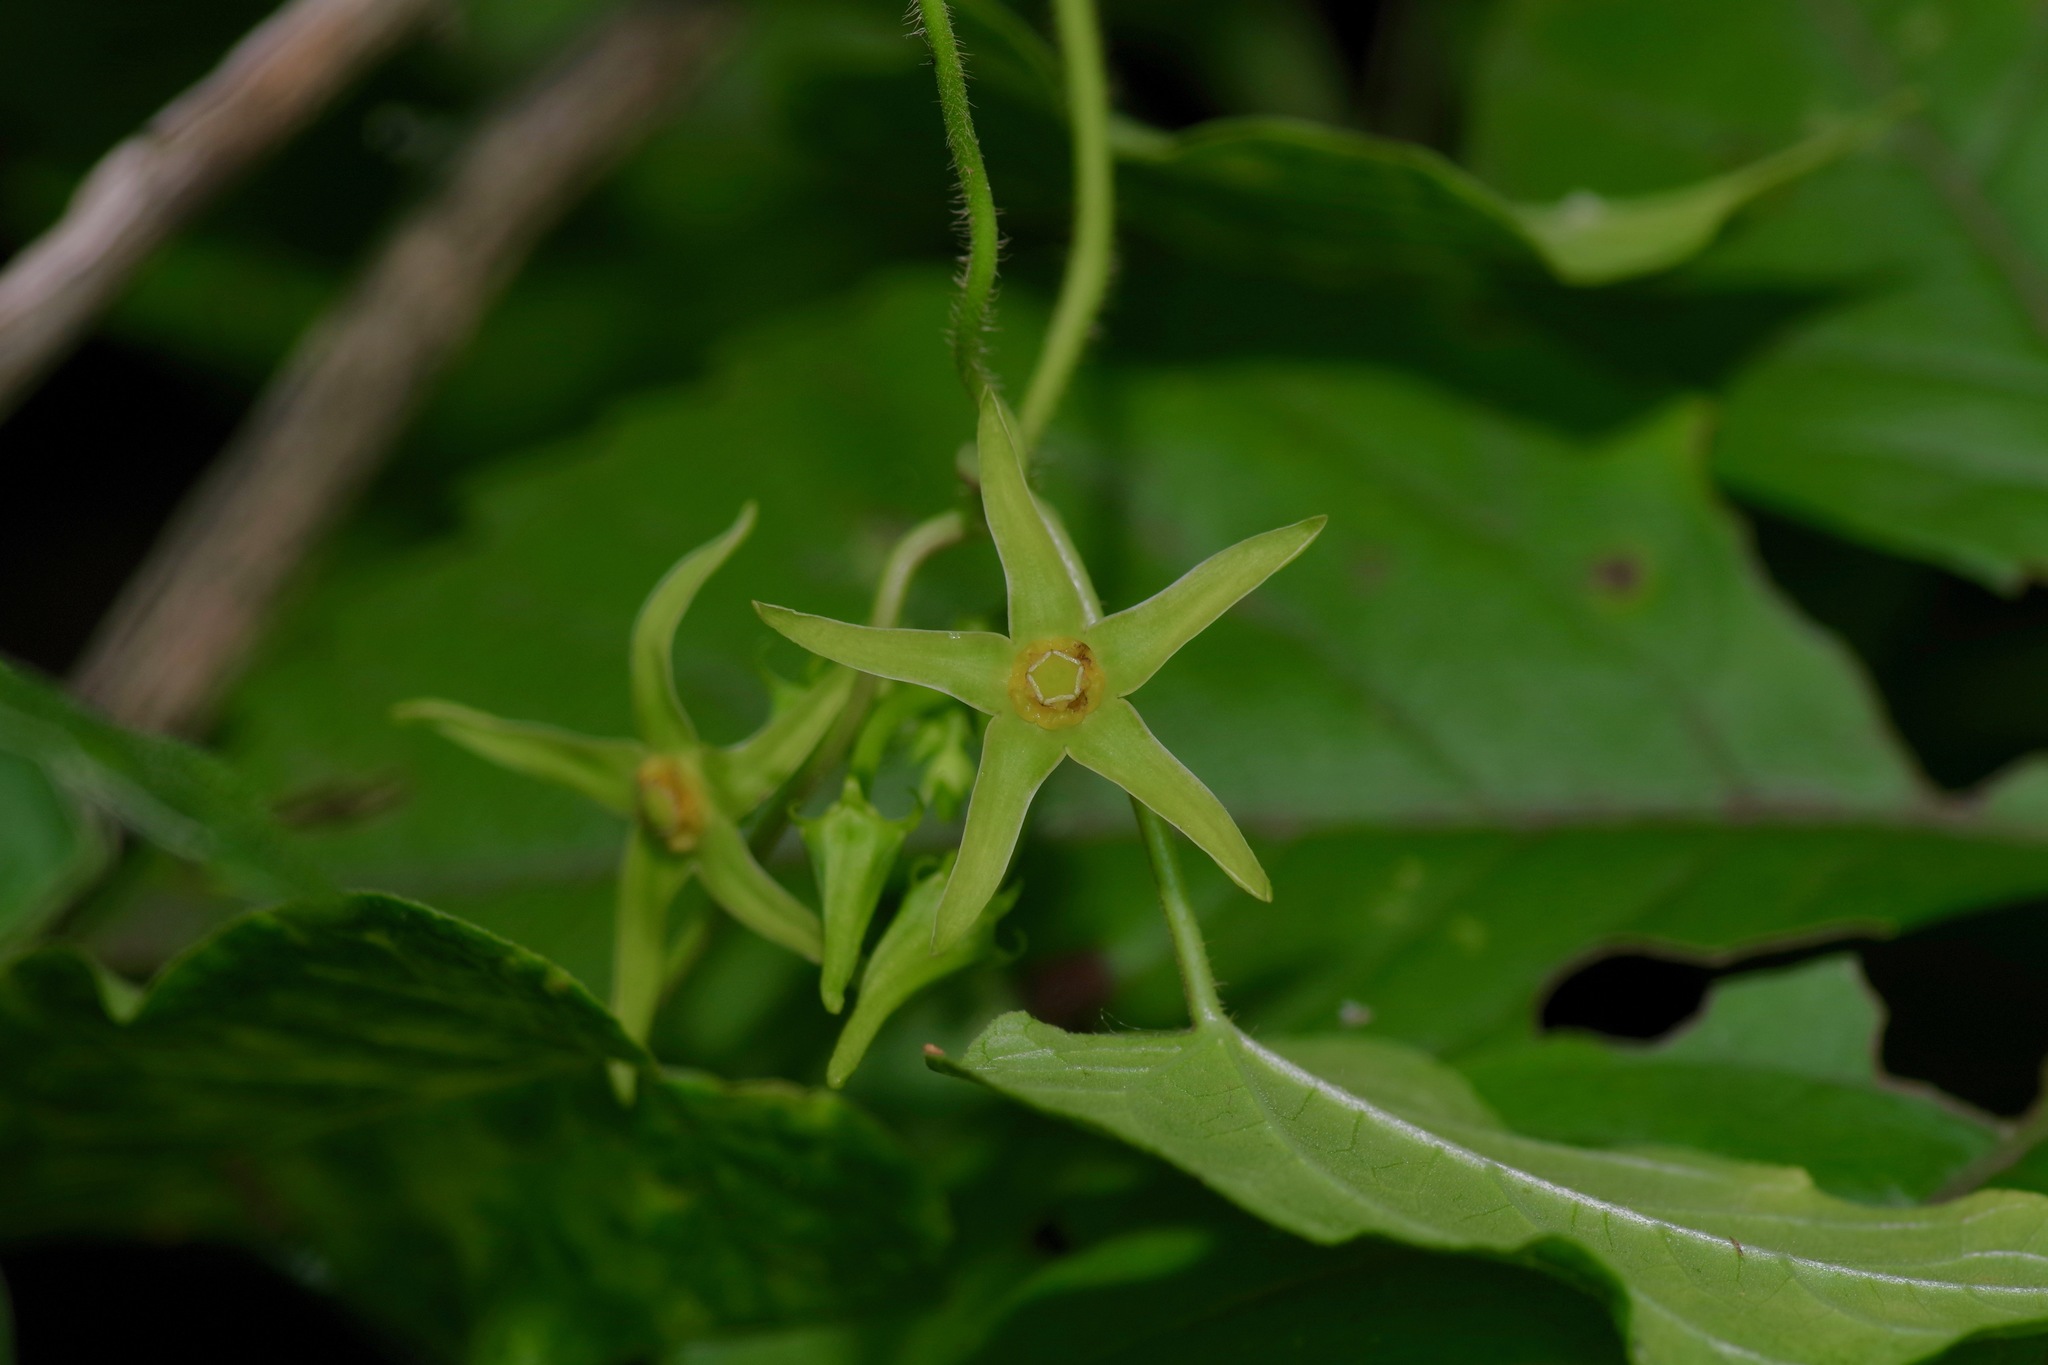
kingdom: Plantae
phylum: Tracheophyta
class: Magnoliopsida
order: Gentianales
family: Apocynaceae
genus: Gonolobus
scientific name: Gonolobus suberosus
